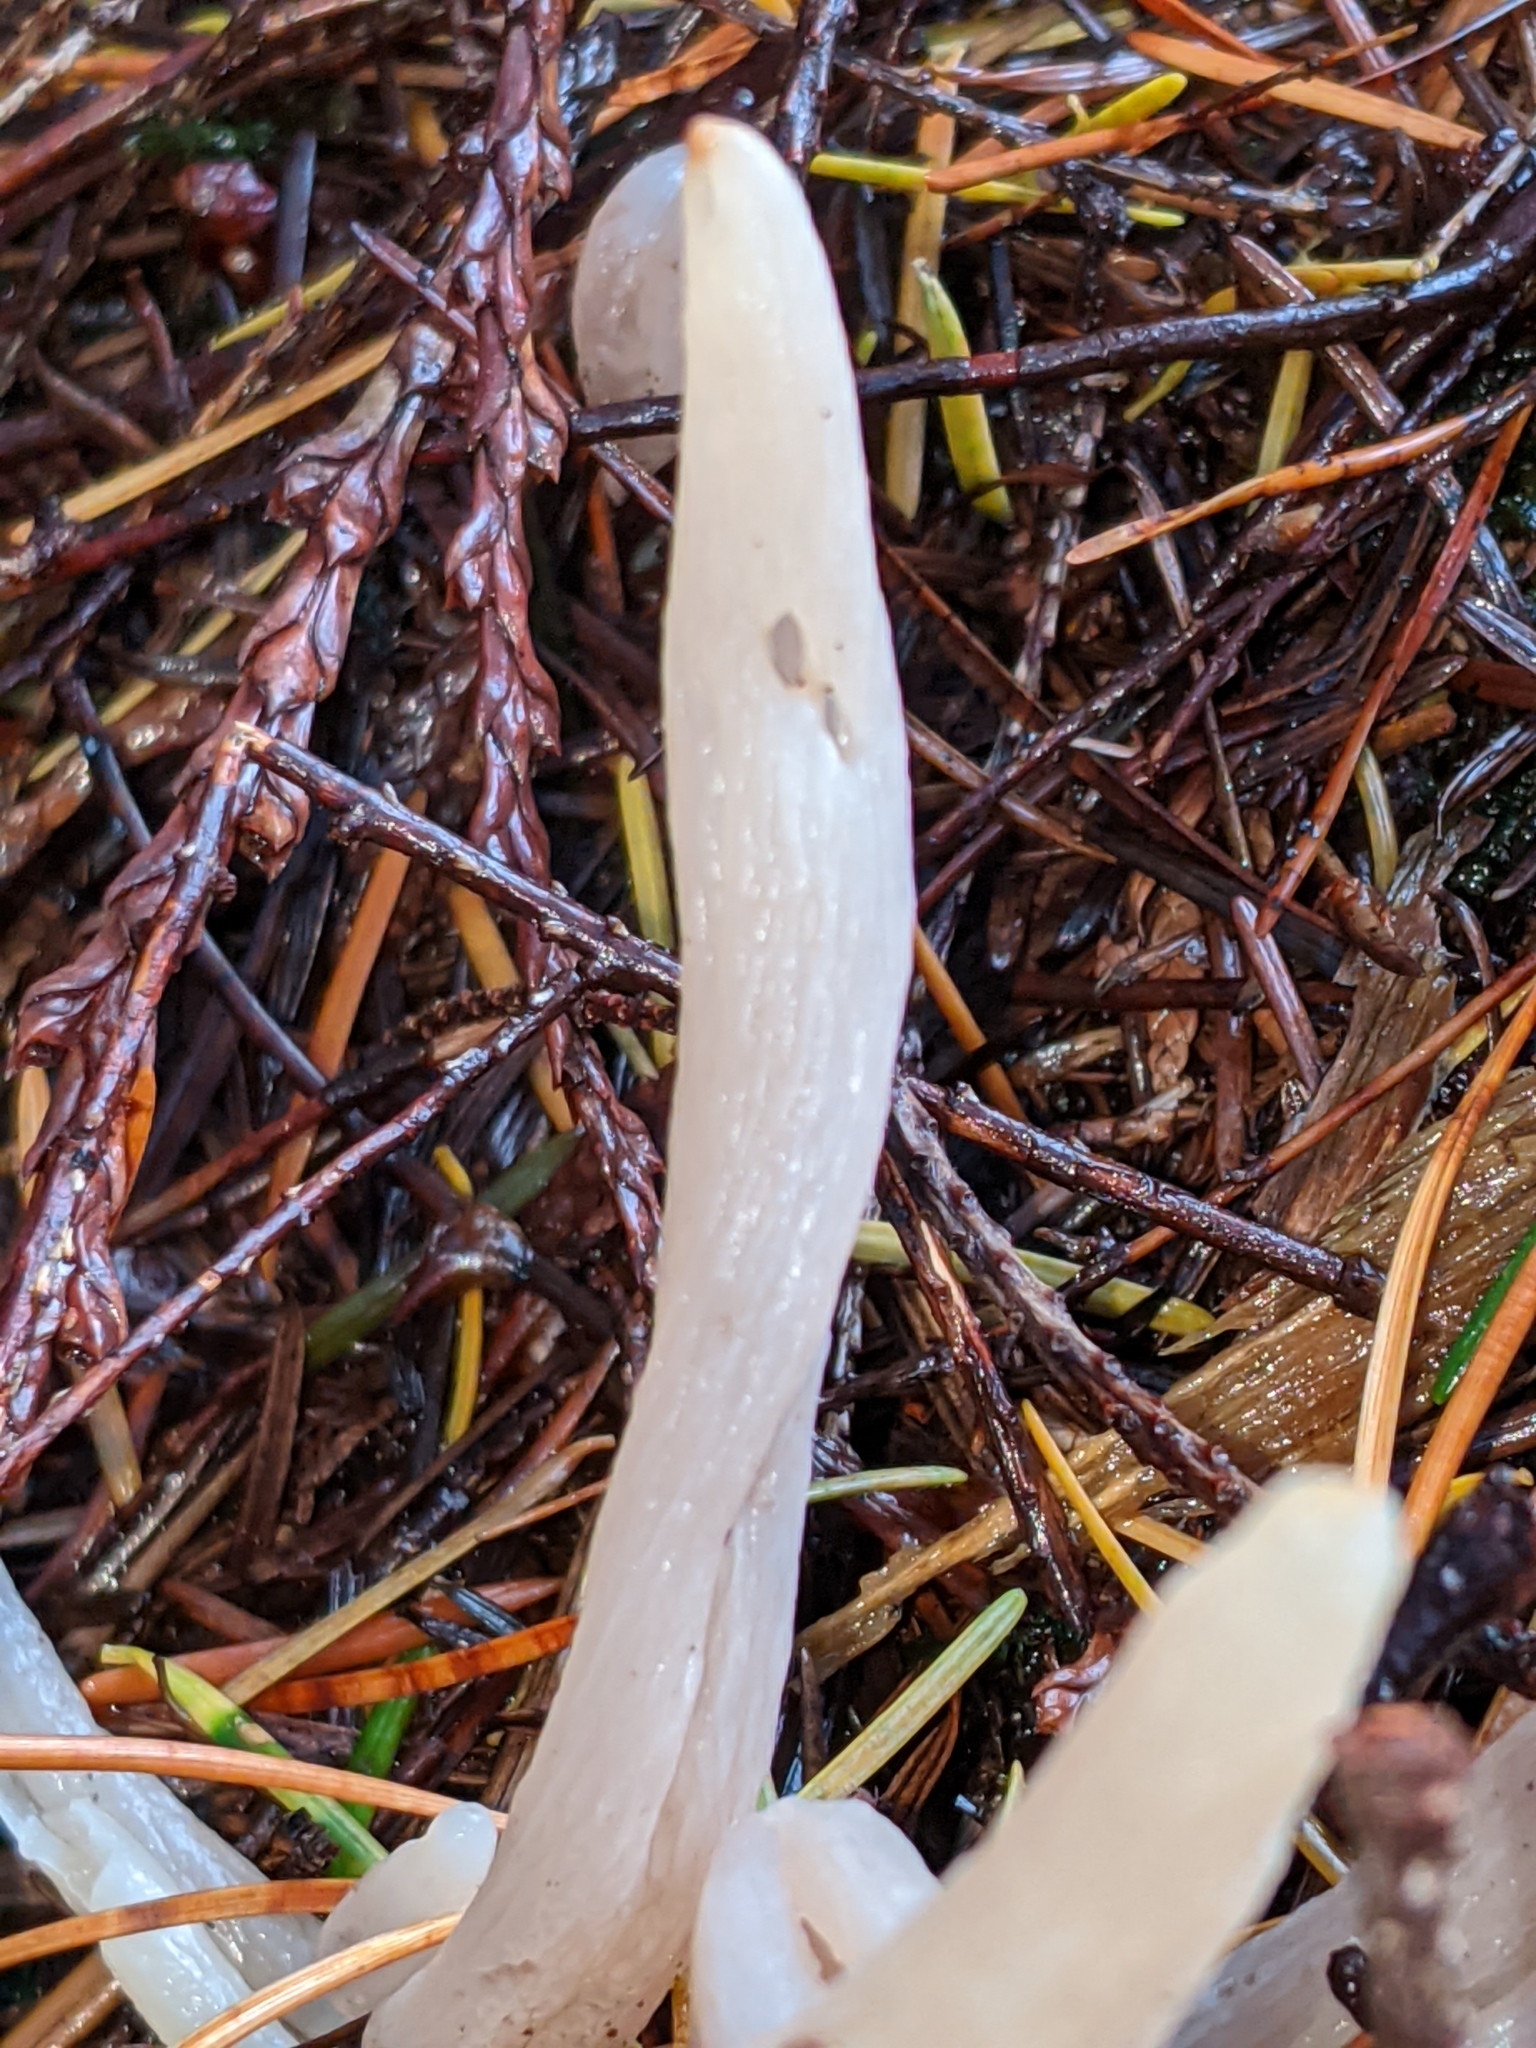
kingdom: Fungi
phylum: Basidiomycota
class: Agaricomycetes
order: Agaricales
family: Clavariaceae
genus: Clavaria
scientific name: Clavaria fragilis
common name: White spindles
